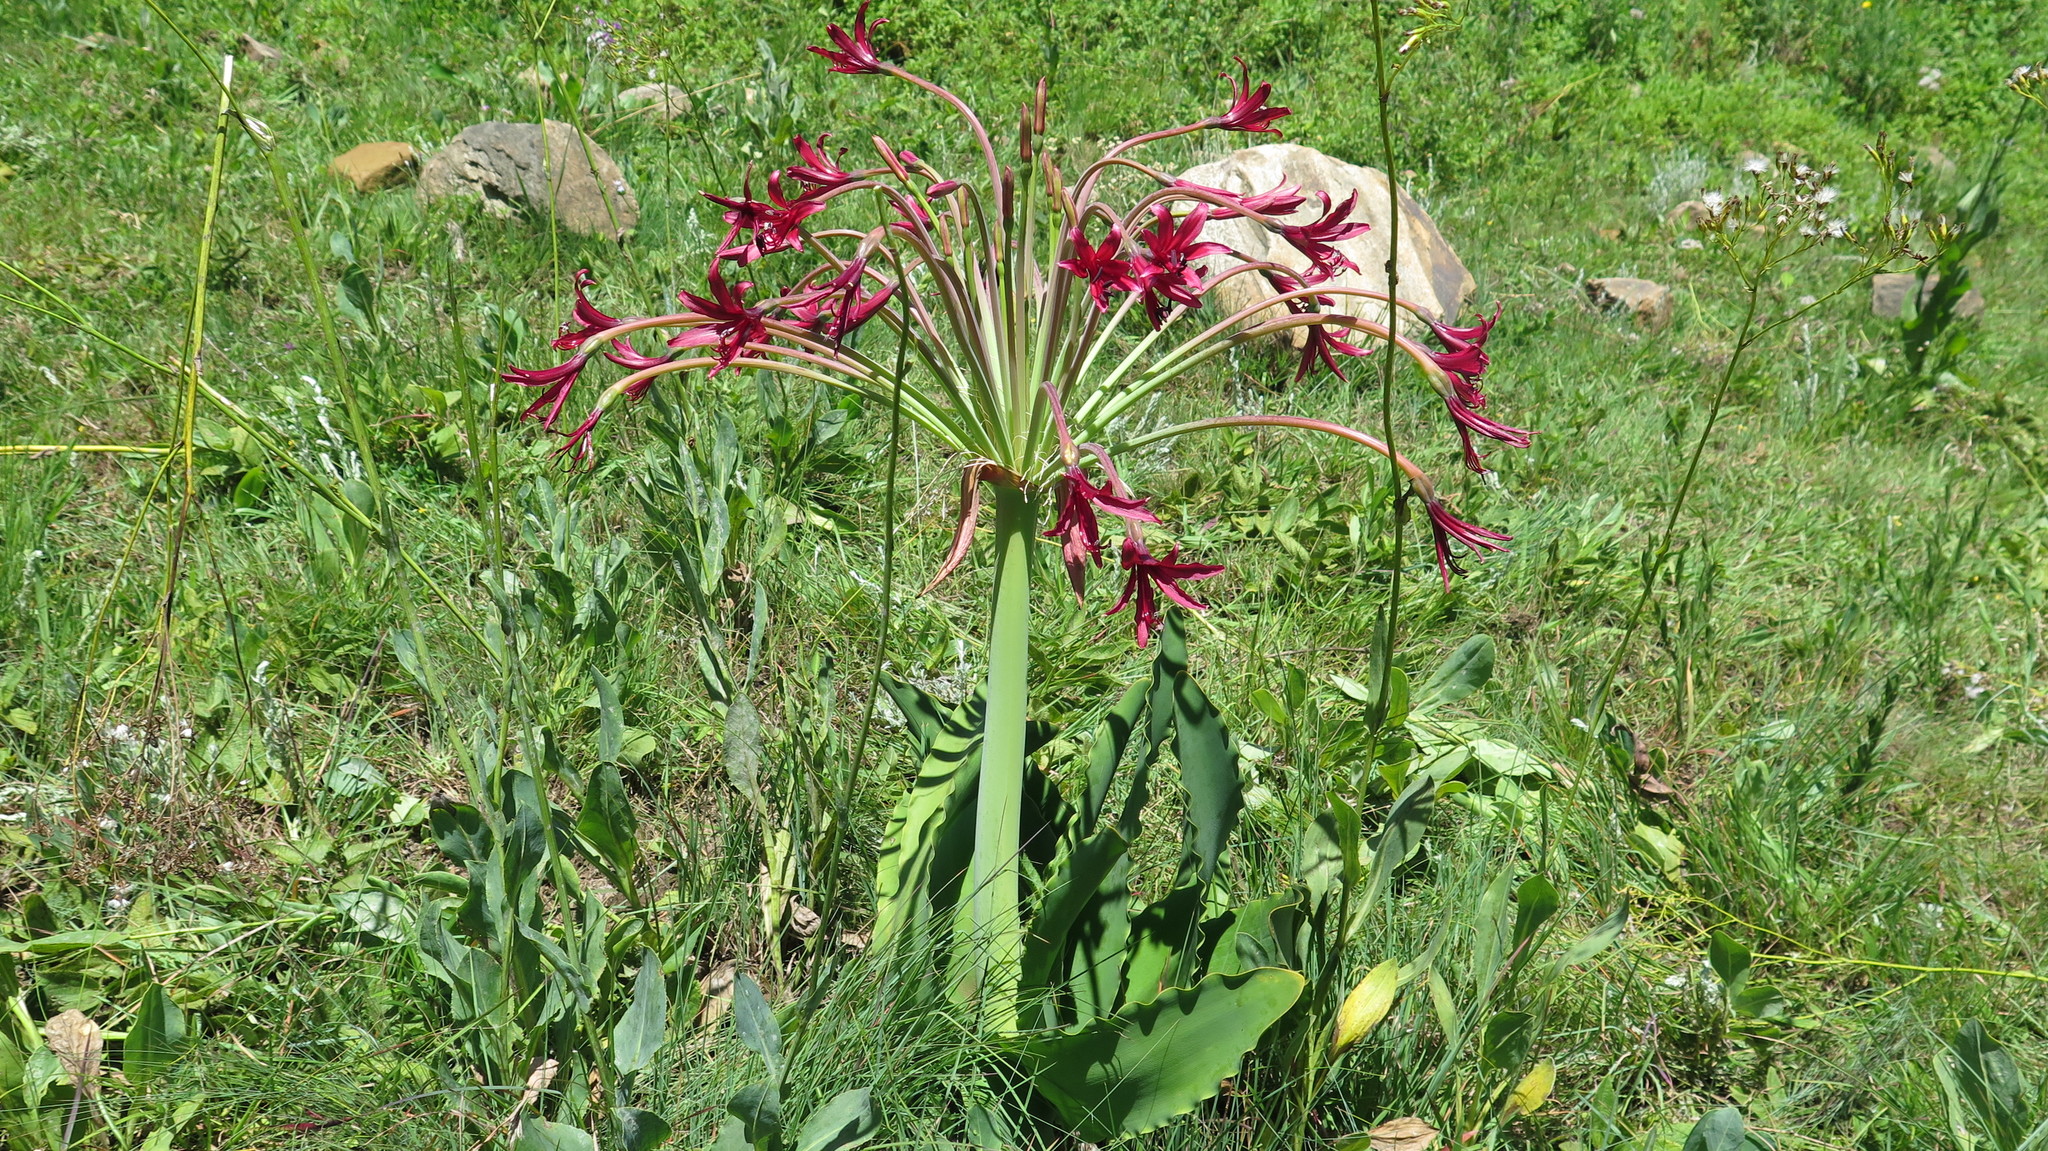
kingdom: Plantae
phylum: Tracheophyta
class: Liliopsida
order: Asparagales
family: Amaryllidaceae
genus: Brunsvigia
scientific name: Brunsvigia undulata
